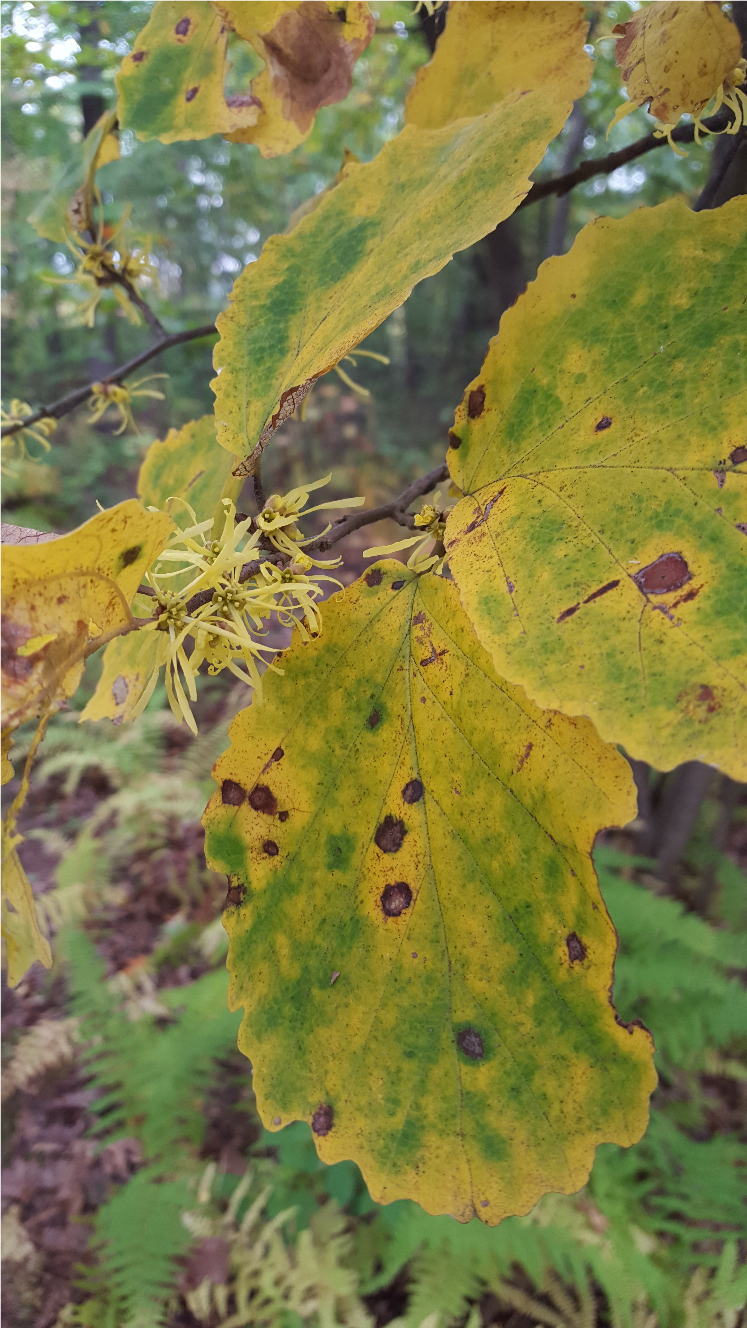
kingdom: Plantae
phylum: Tracheophyta
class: Magnoliopsida
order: Saxifragales
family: Hamamelidaceae
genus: Hamamelis
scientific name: Hamamelis virginiana
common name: Witch-hazel
